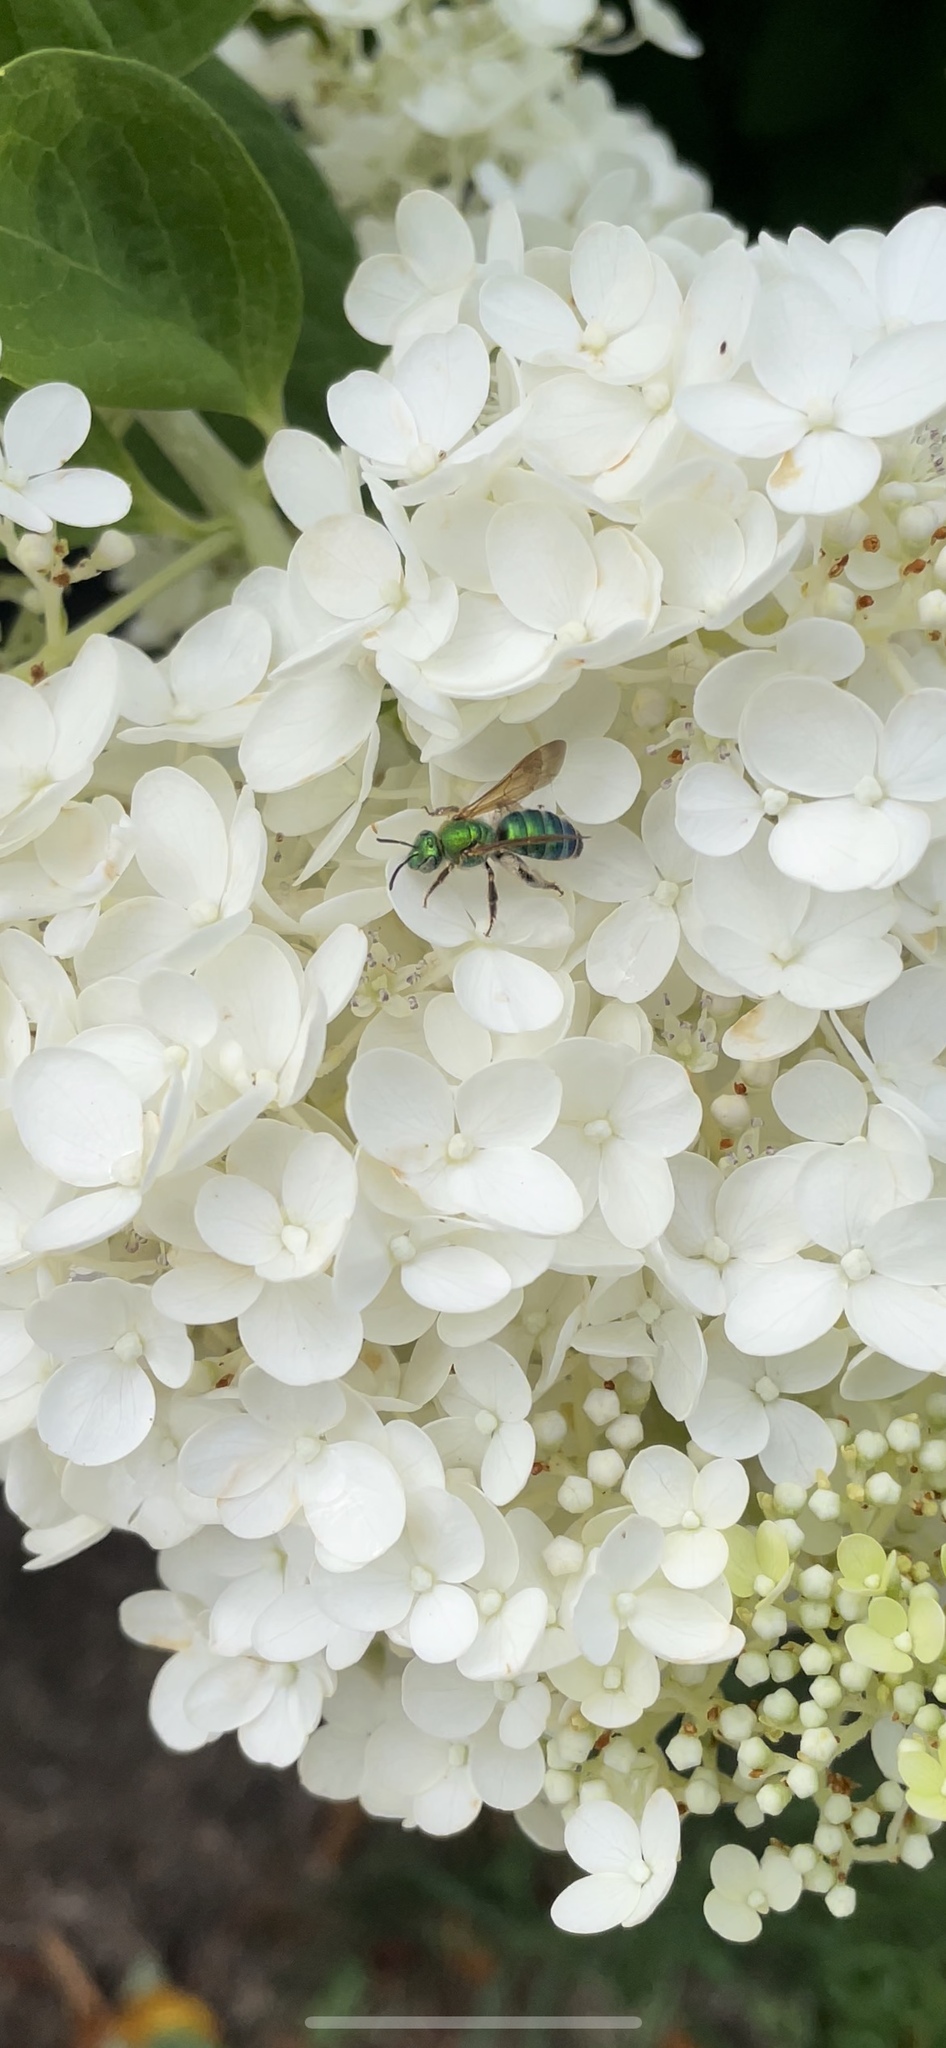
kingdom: Animalia
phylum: Arthropoda
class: Insecta
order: Hymenoptera
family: Halictidae
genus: Agapostemon
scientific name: Agapostemon splendens
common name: Brown-winged striped sweat bee
